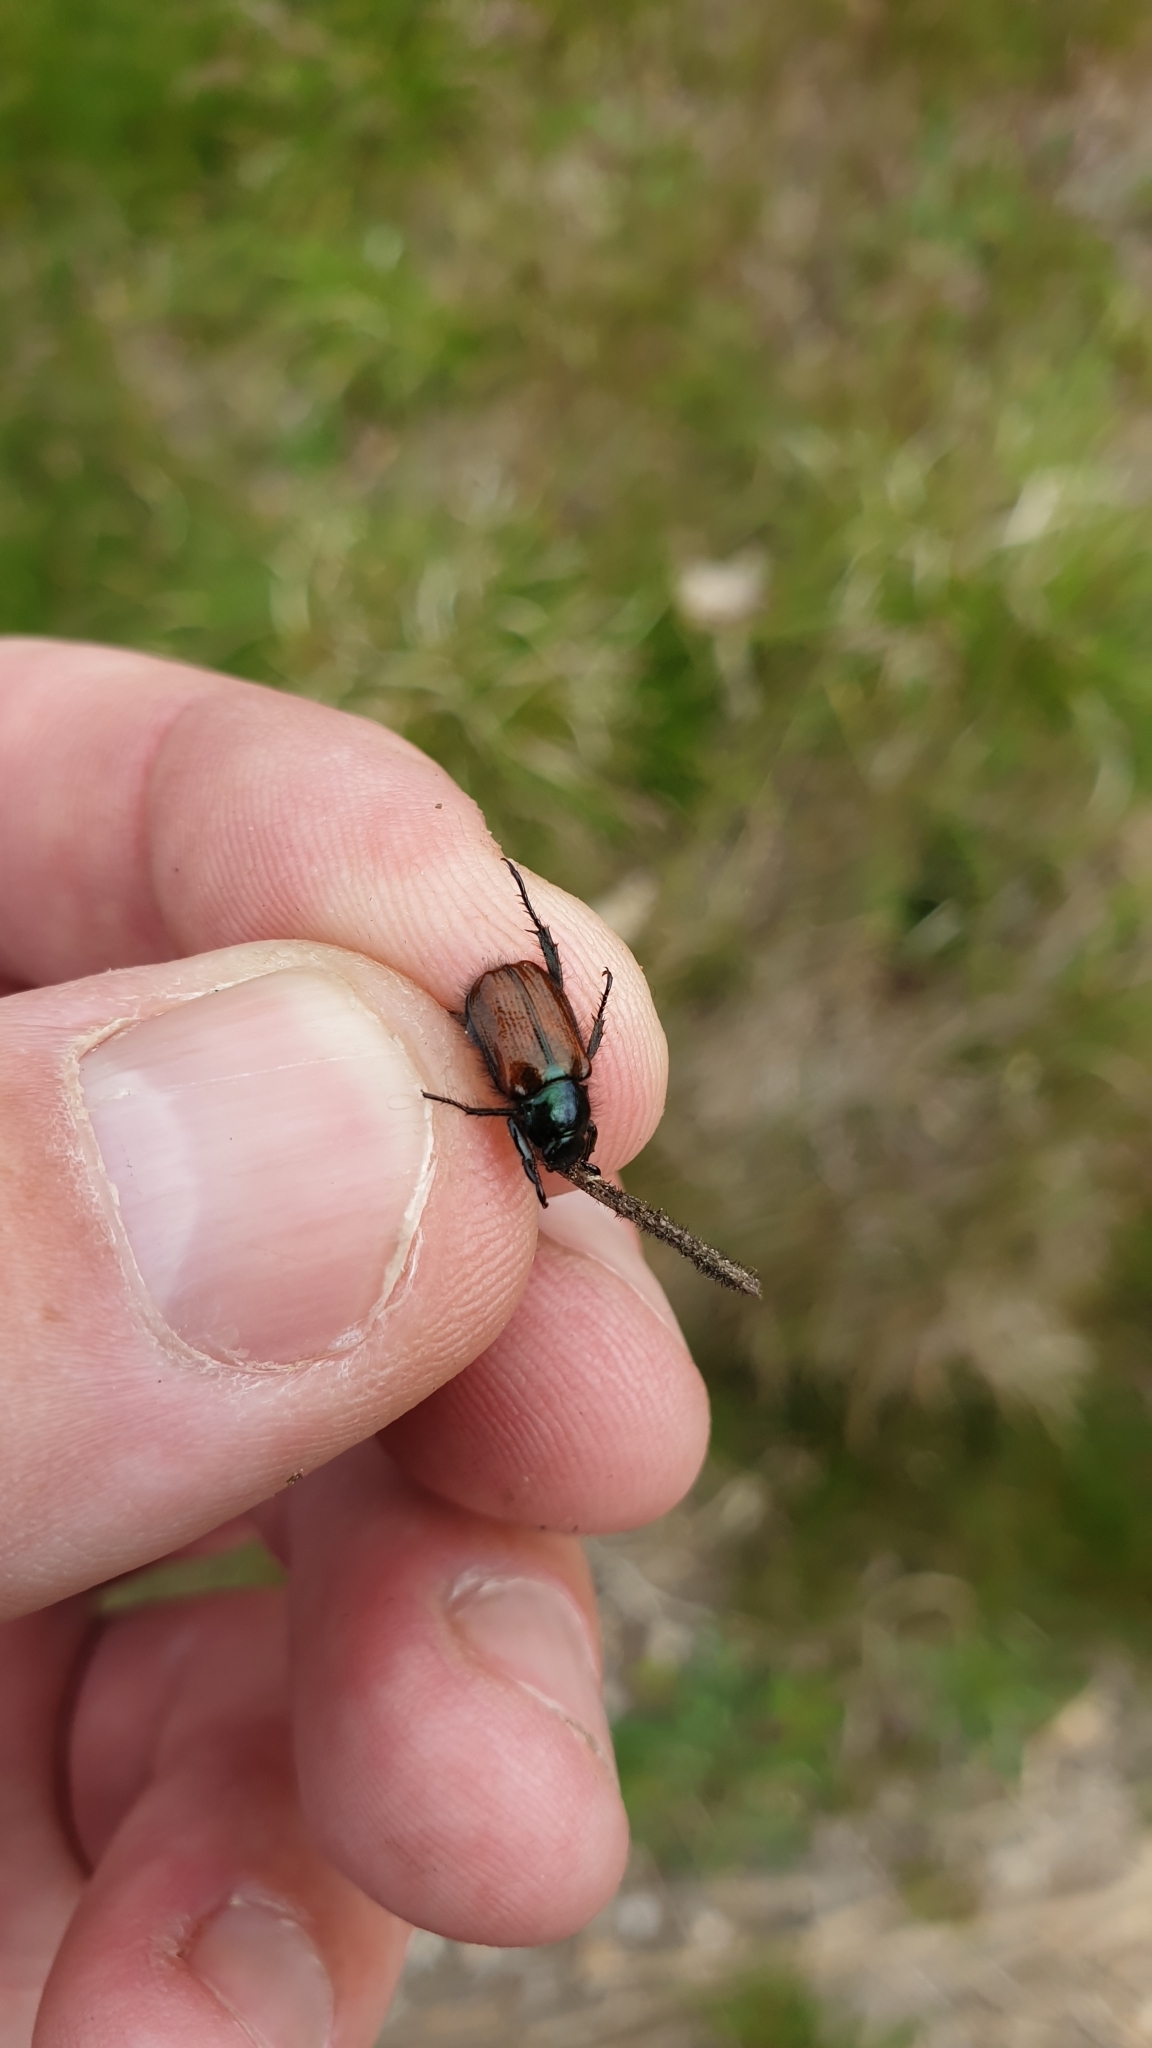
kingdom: Animalia
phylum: Arthropoda
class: Insecta
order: Coleoptera
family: Scarabaeidae
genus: Phyllopertha
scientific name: Phyllopertha horticola
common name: Garden chafer
